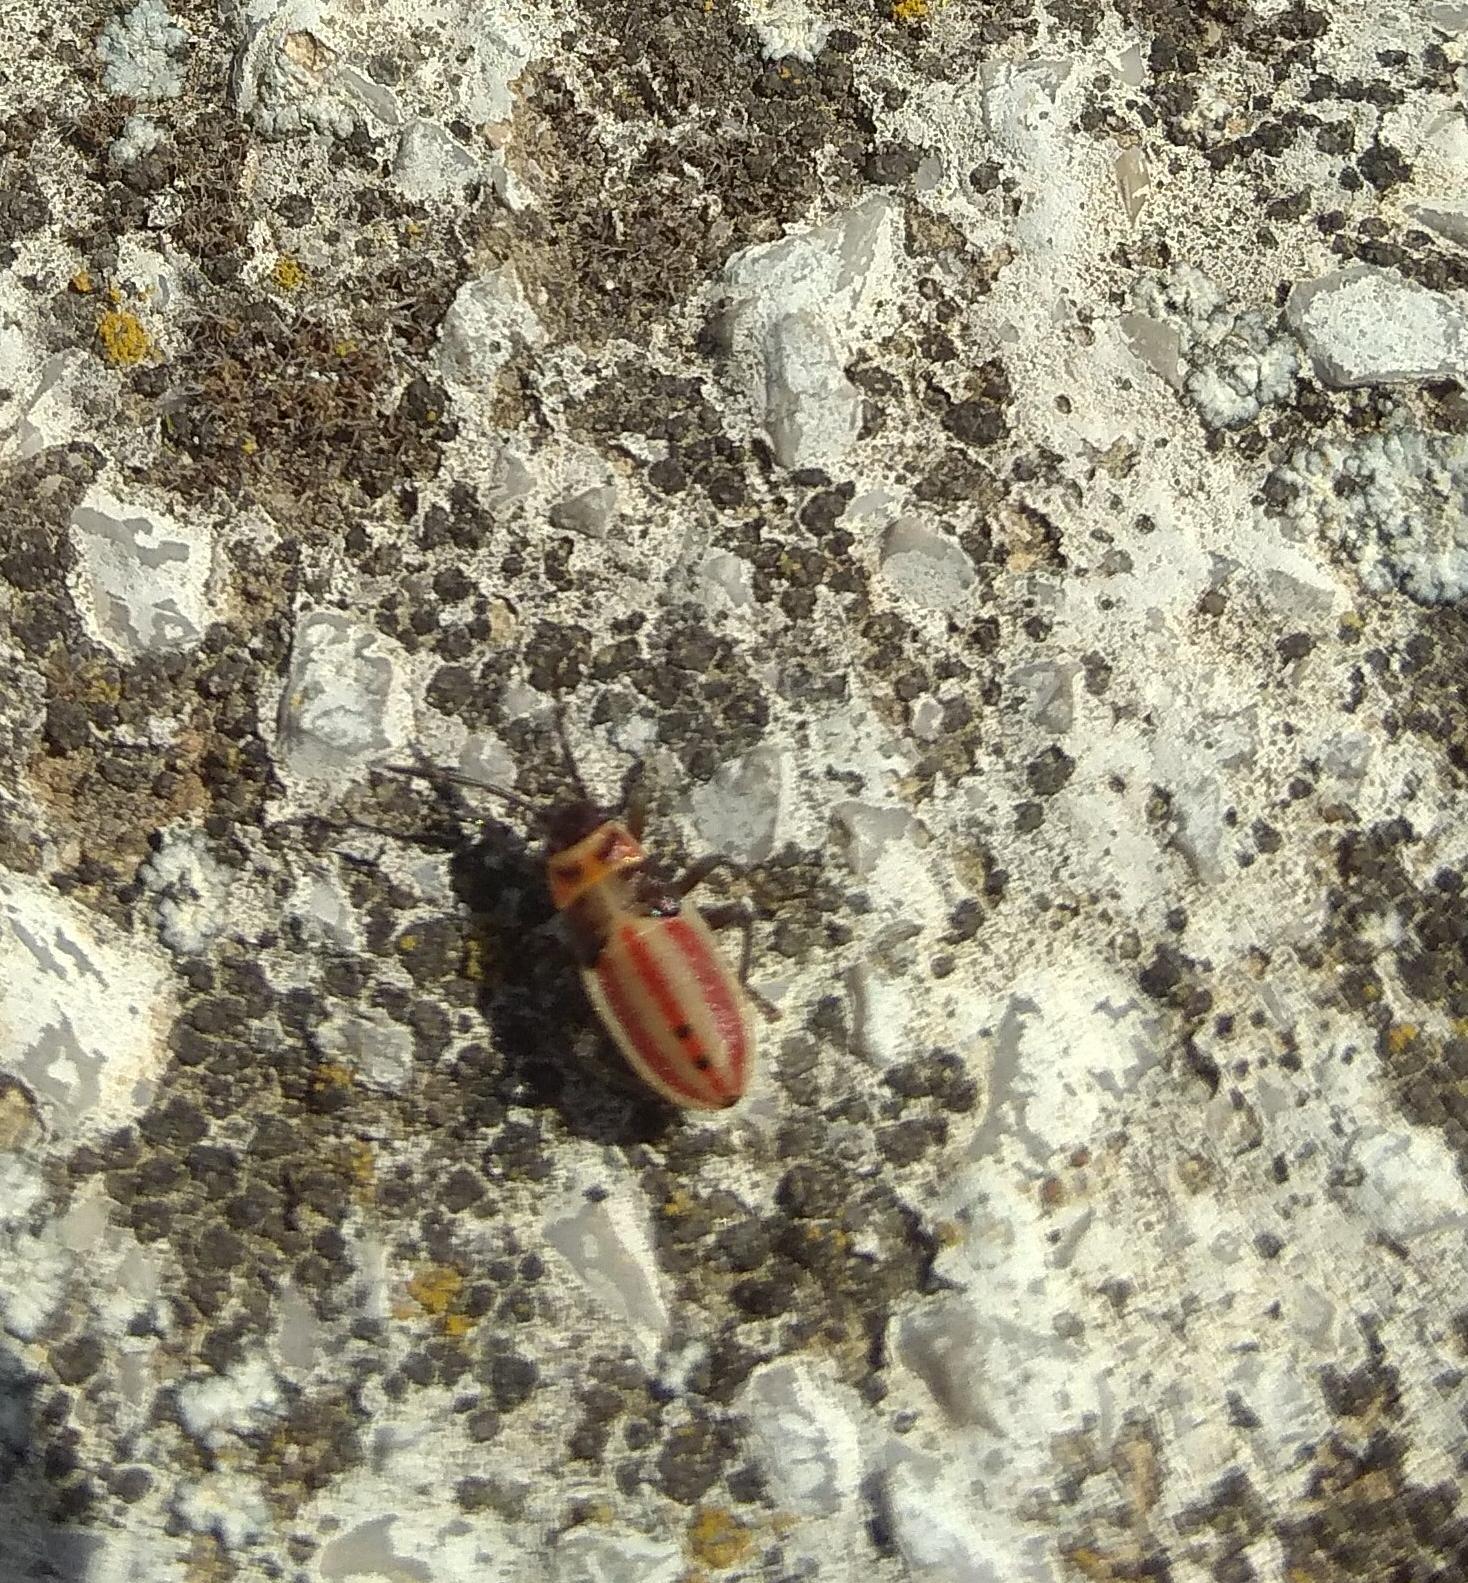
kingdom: Animalia
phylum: Arthropoda
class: Insecta
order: Hemiptera
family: Lygaeidae
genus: Lygaeus
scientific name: Lygaeus creticus
